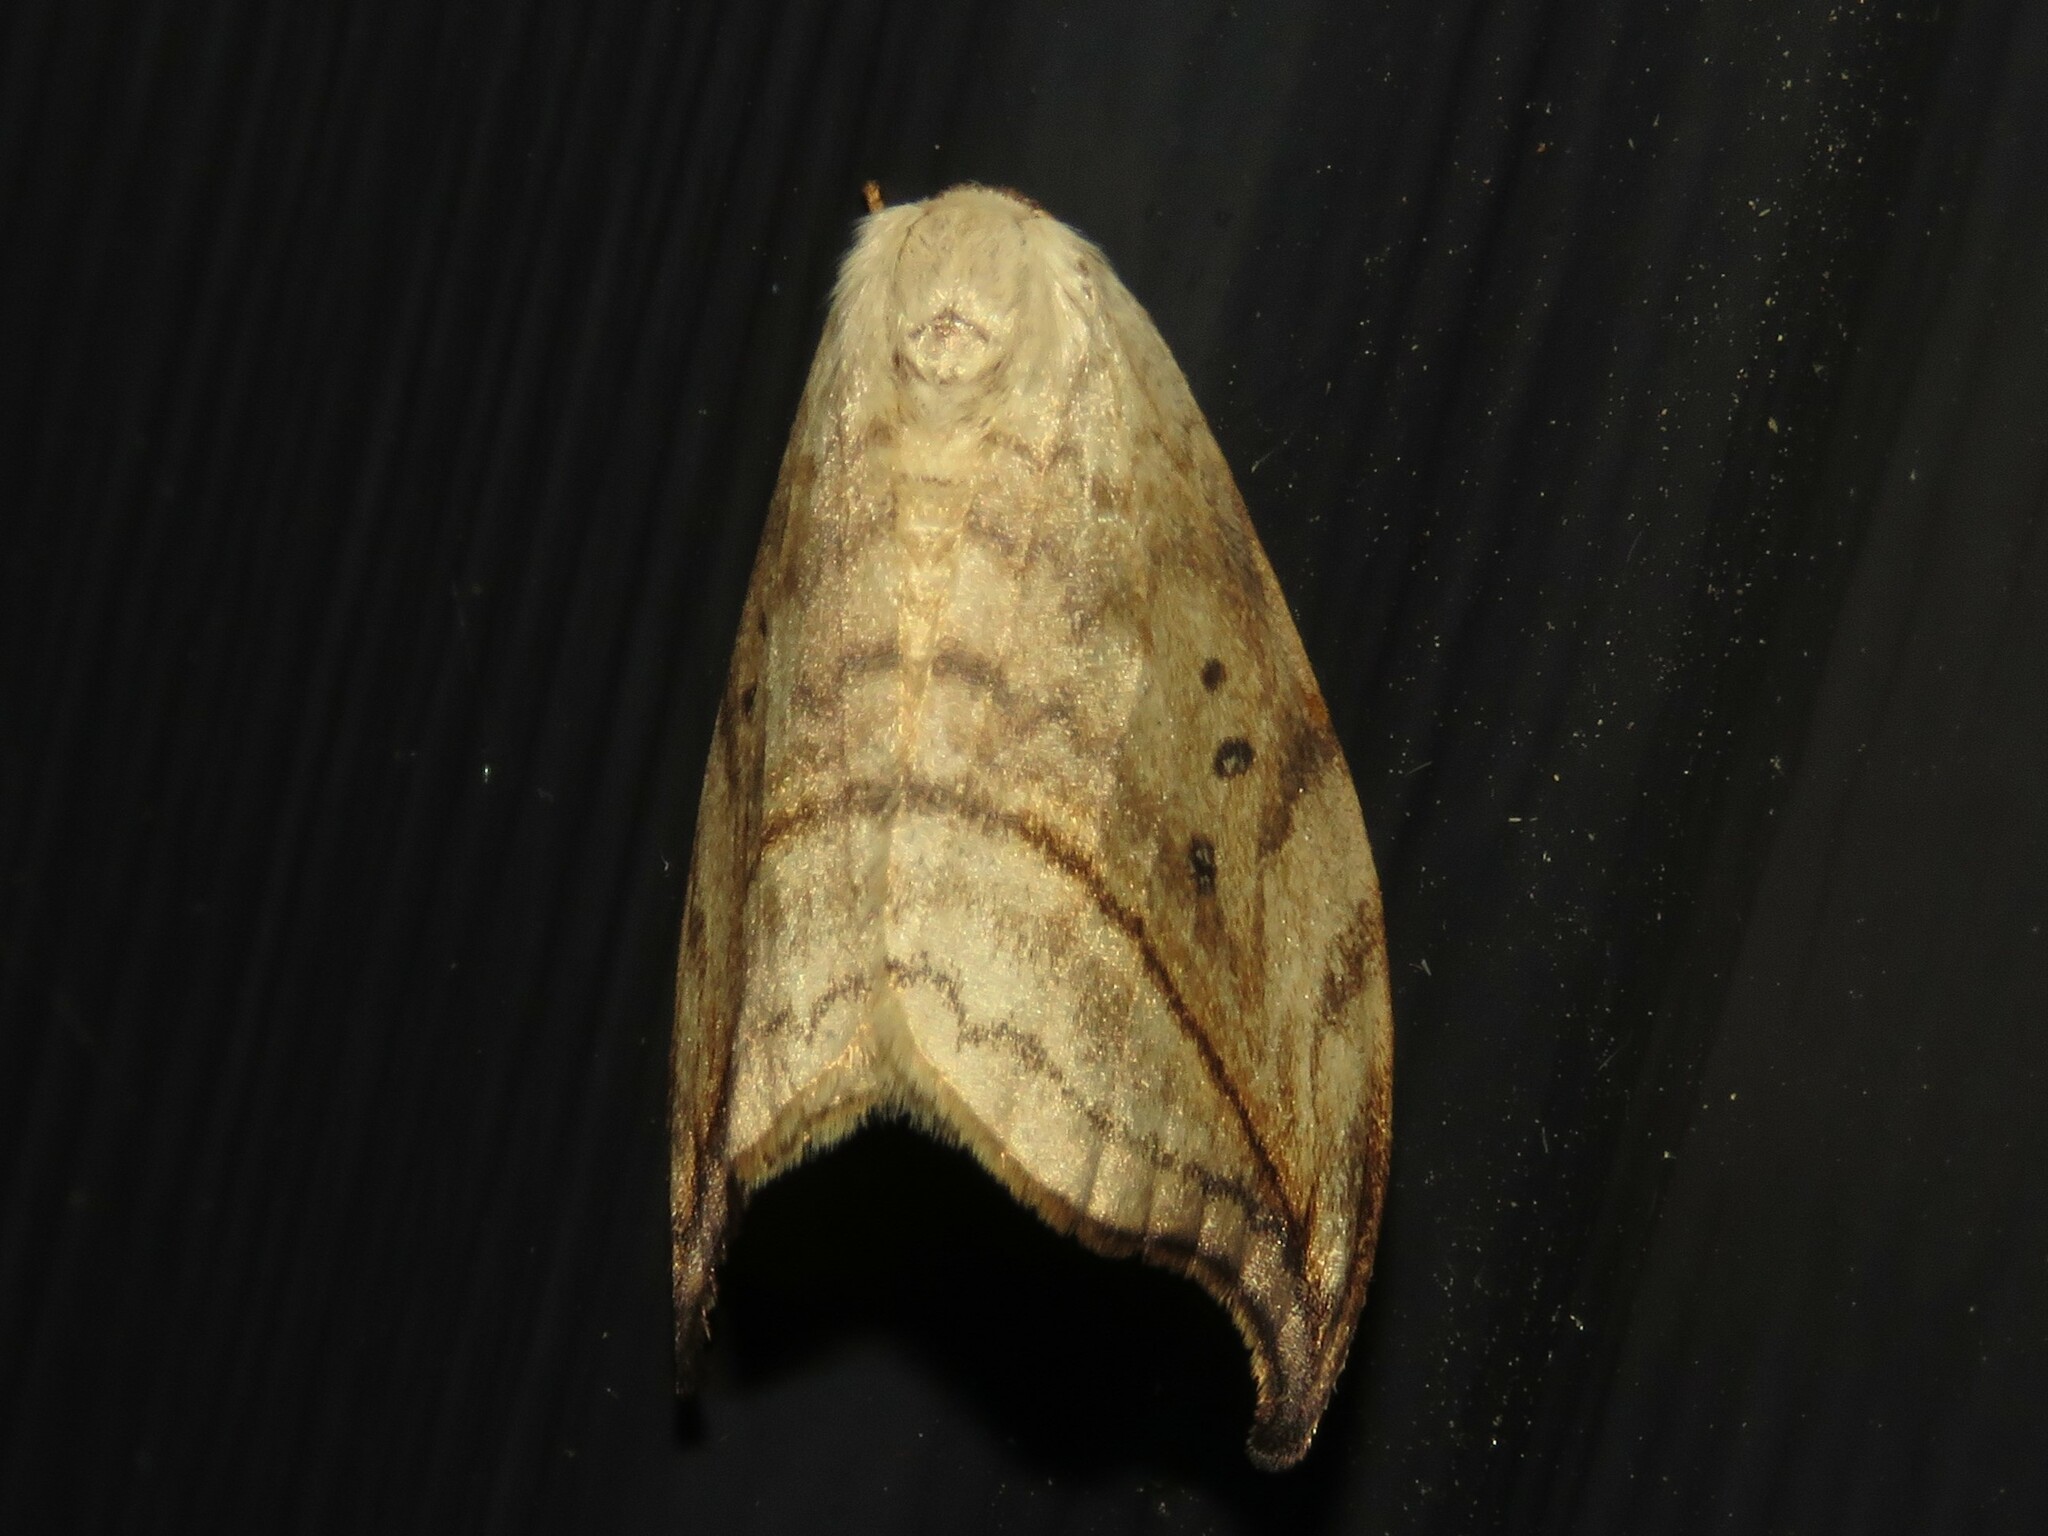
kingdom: Animalia
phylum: Arthropoda
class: Insecta
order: Lepidoptera
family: Drepanidae
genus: Drepana
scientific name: Drepana arcuata
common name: Arched hooktip moth
